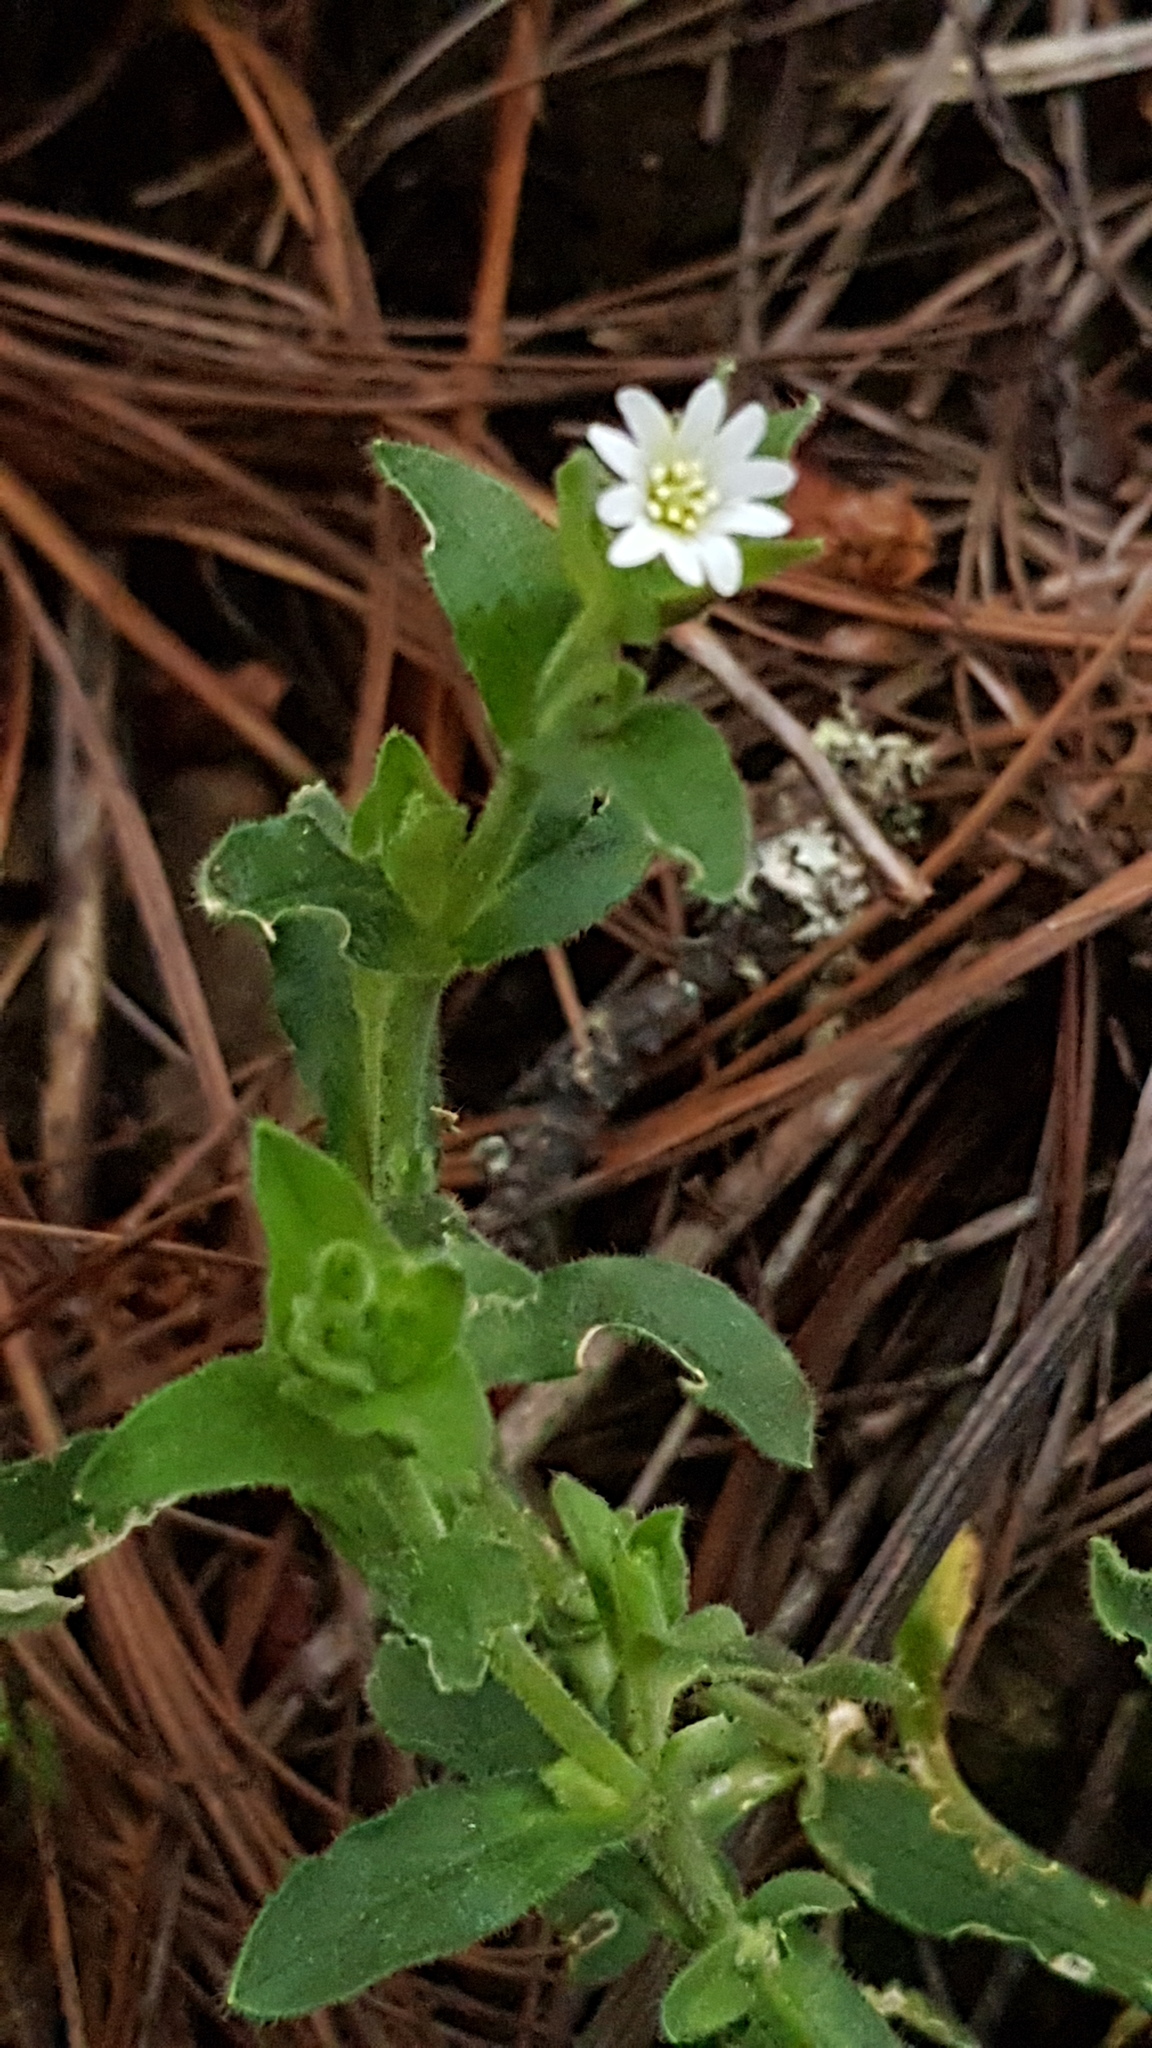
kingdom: Plantae
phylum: Tracheophyta
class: Magnoliopsida
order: Caryophyllales
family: Caryophyllaceae
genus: Cerastium
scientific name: Cerastium nutans
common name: Long-stalked chickweed
